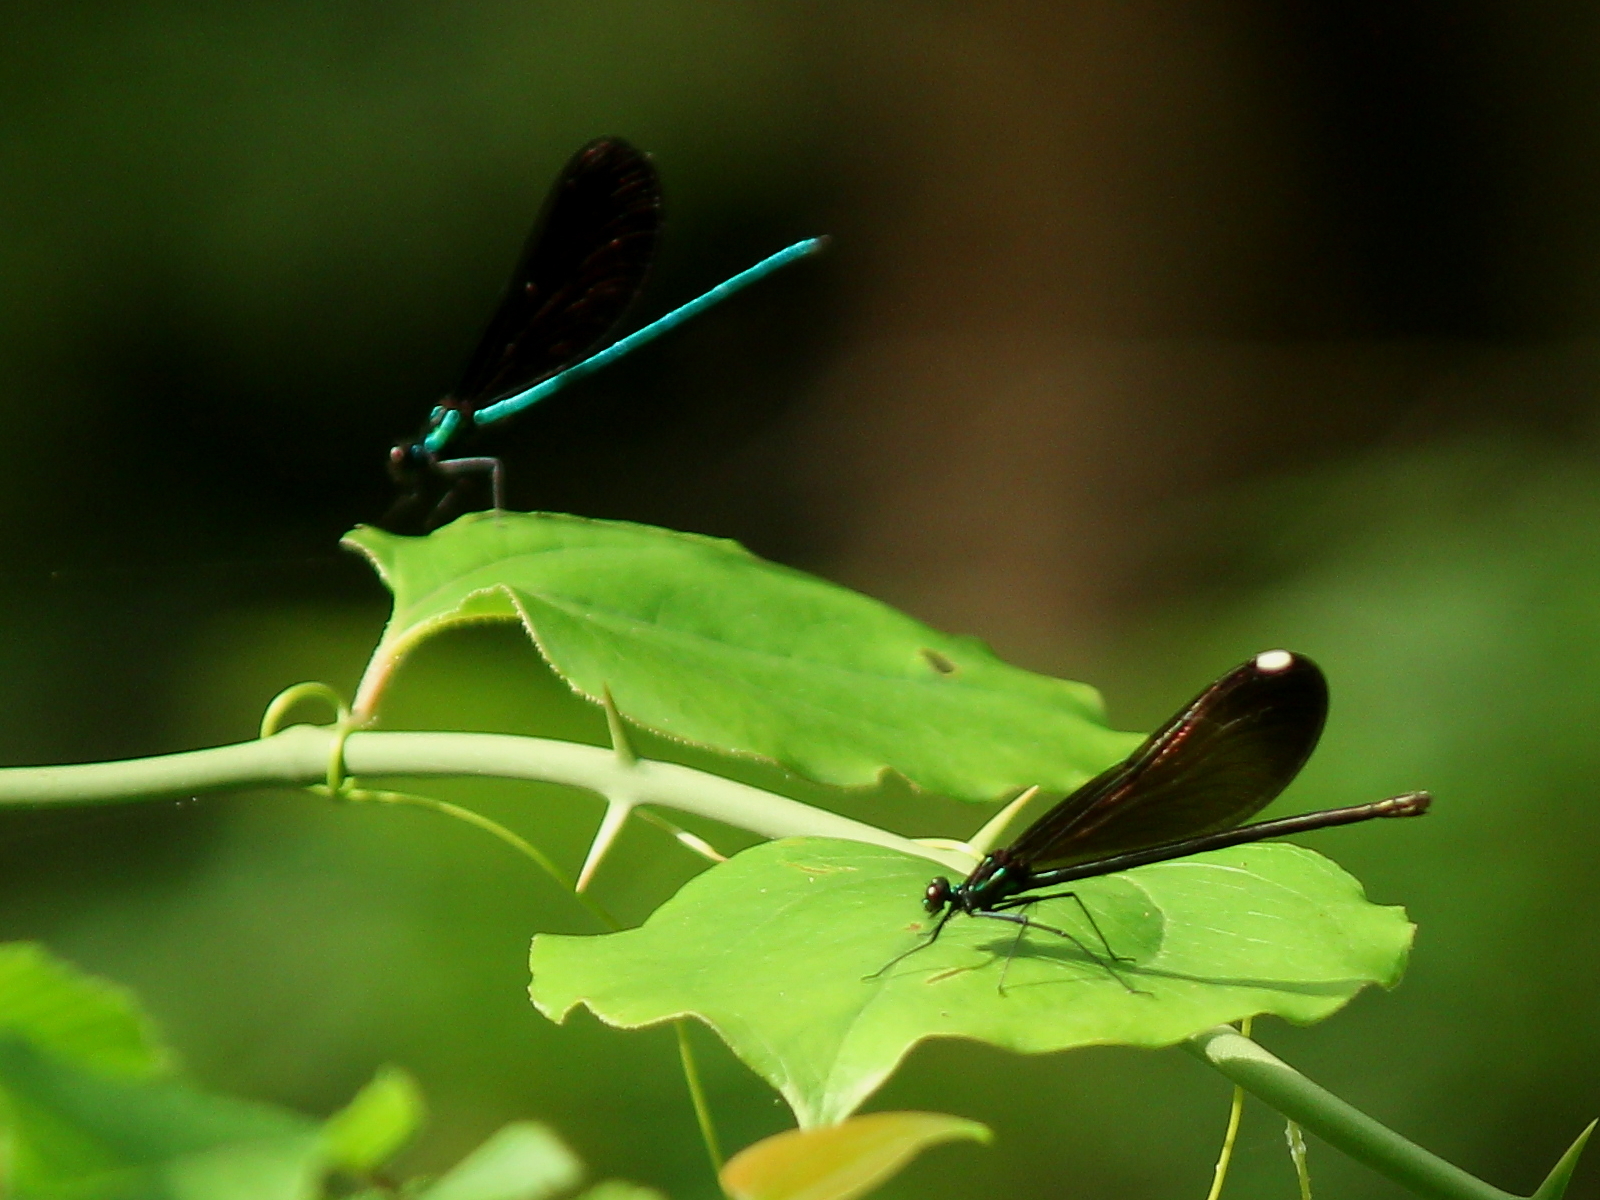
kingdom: Animalia
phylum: Arthropoda
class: Insecta
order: Odonata
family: Calopterygidae
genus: Calopteryx
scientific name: Calopteryx maculata
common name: Ebony jewelwing
